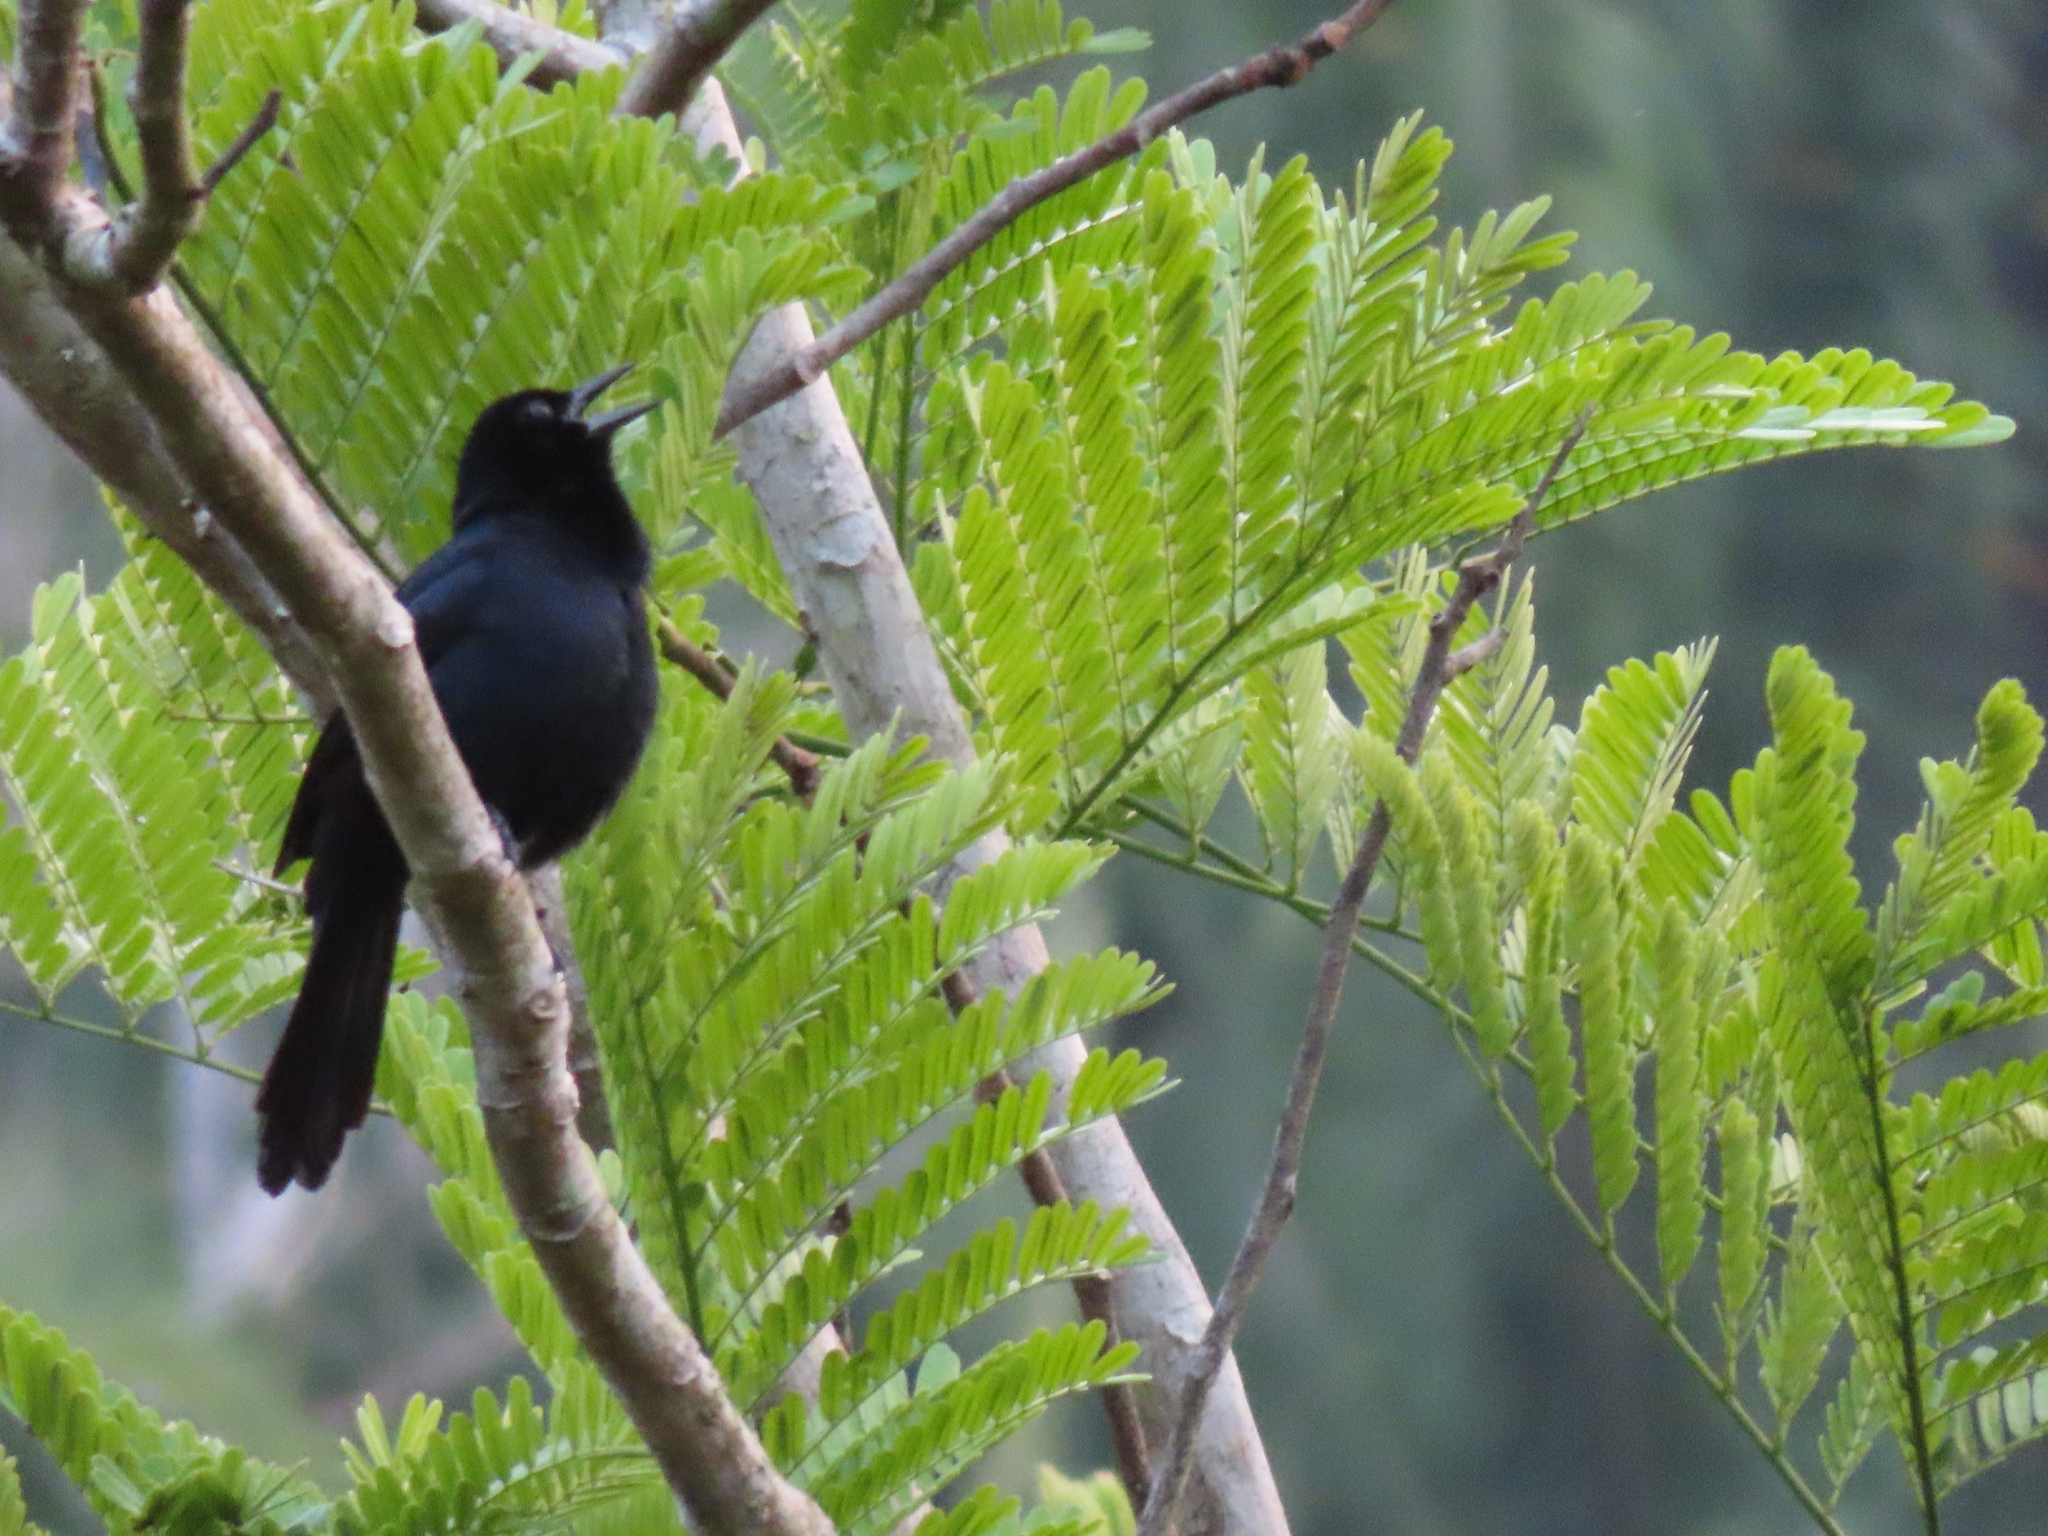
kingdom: Animalia
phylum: Chordata
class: Aves
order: Passeriformes
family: Icteridae
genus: Dives
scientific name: Dives dives
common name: Melodious blackbird
